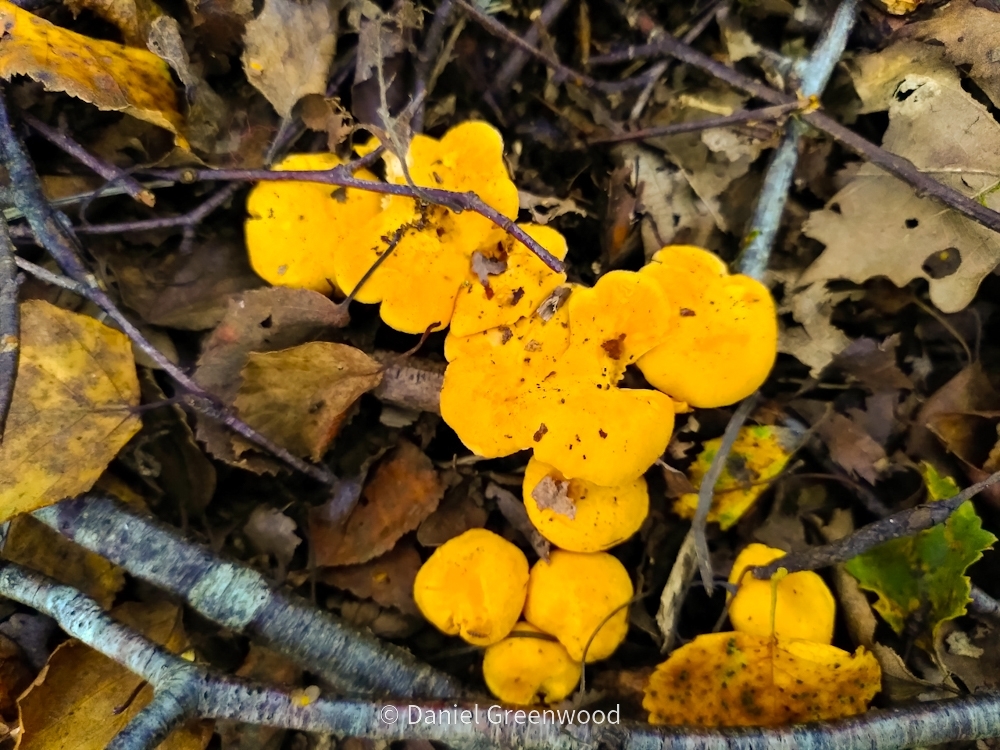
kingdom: Fungi
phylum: Basidiomycota
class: Agaricomycetes
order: Cantharellales
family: Hydnaceae
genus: Cantharellus
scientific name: Cantharellus cibarius
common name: Chanterelle
